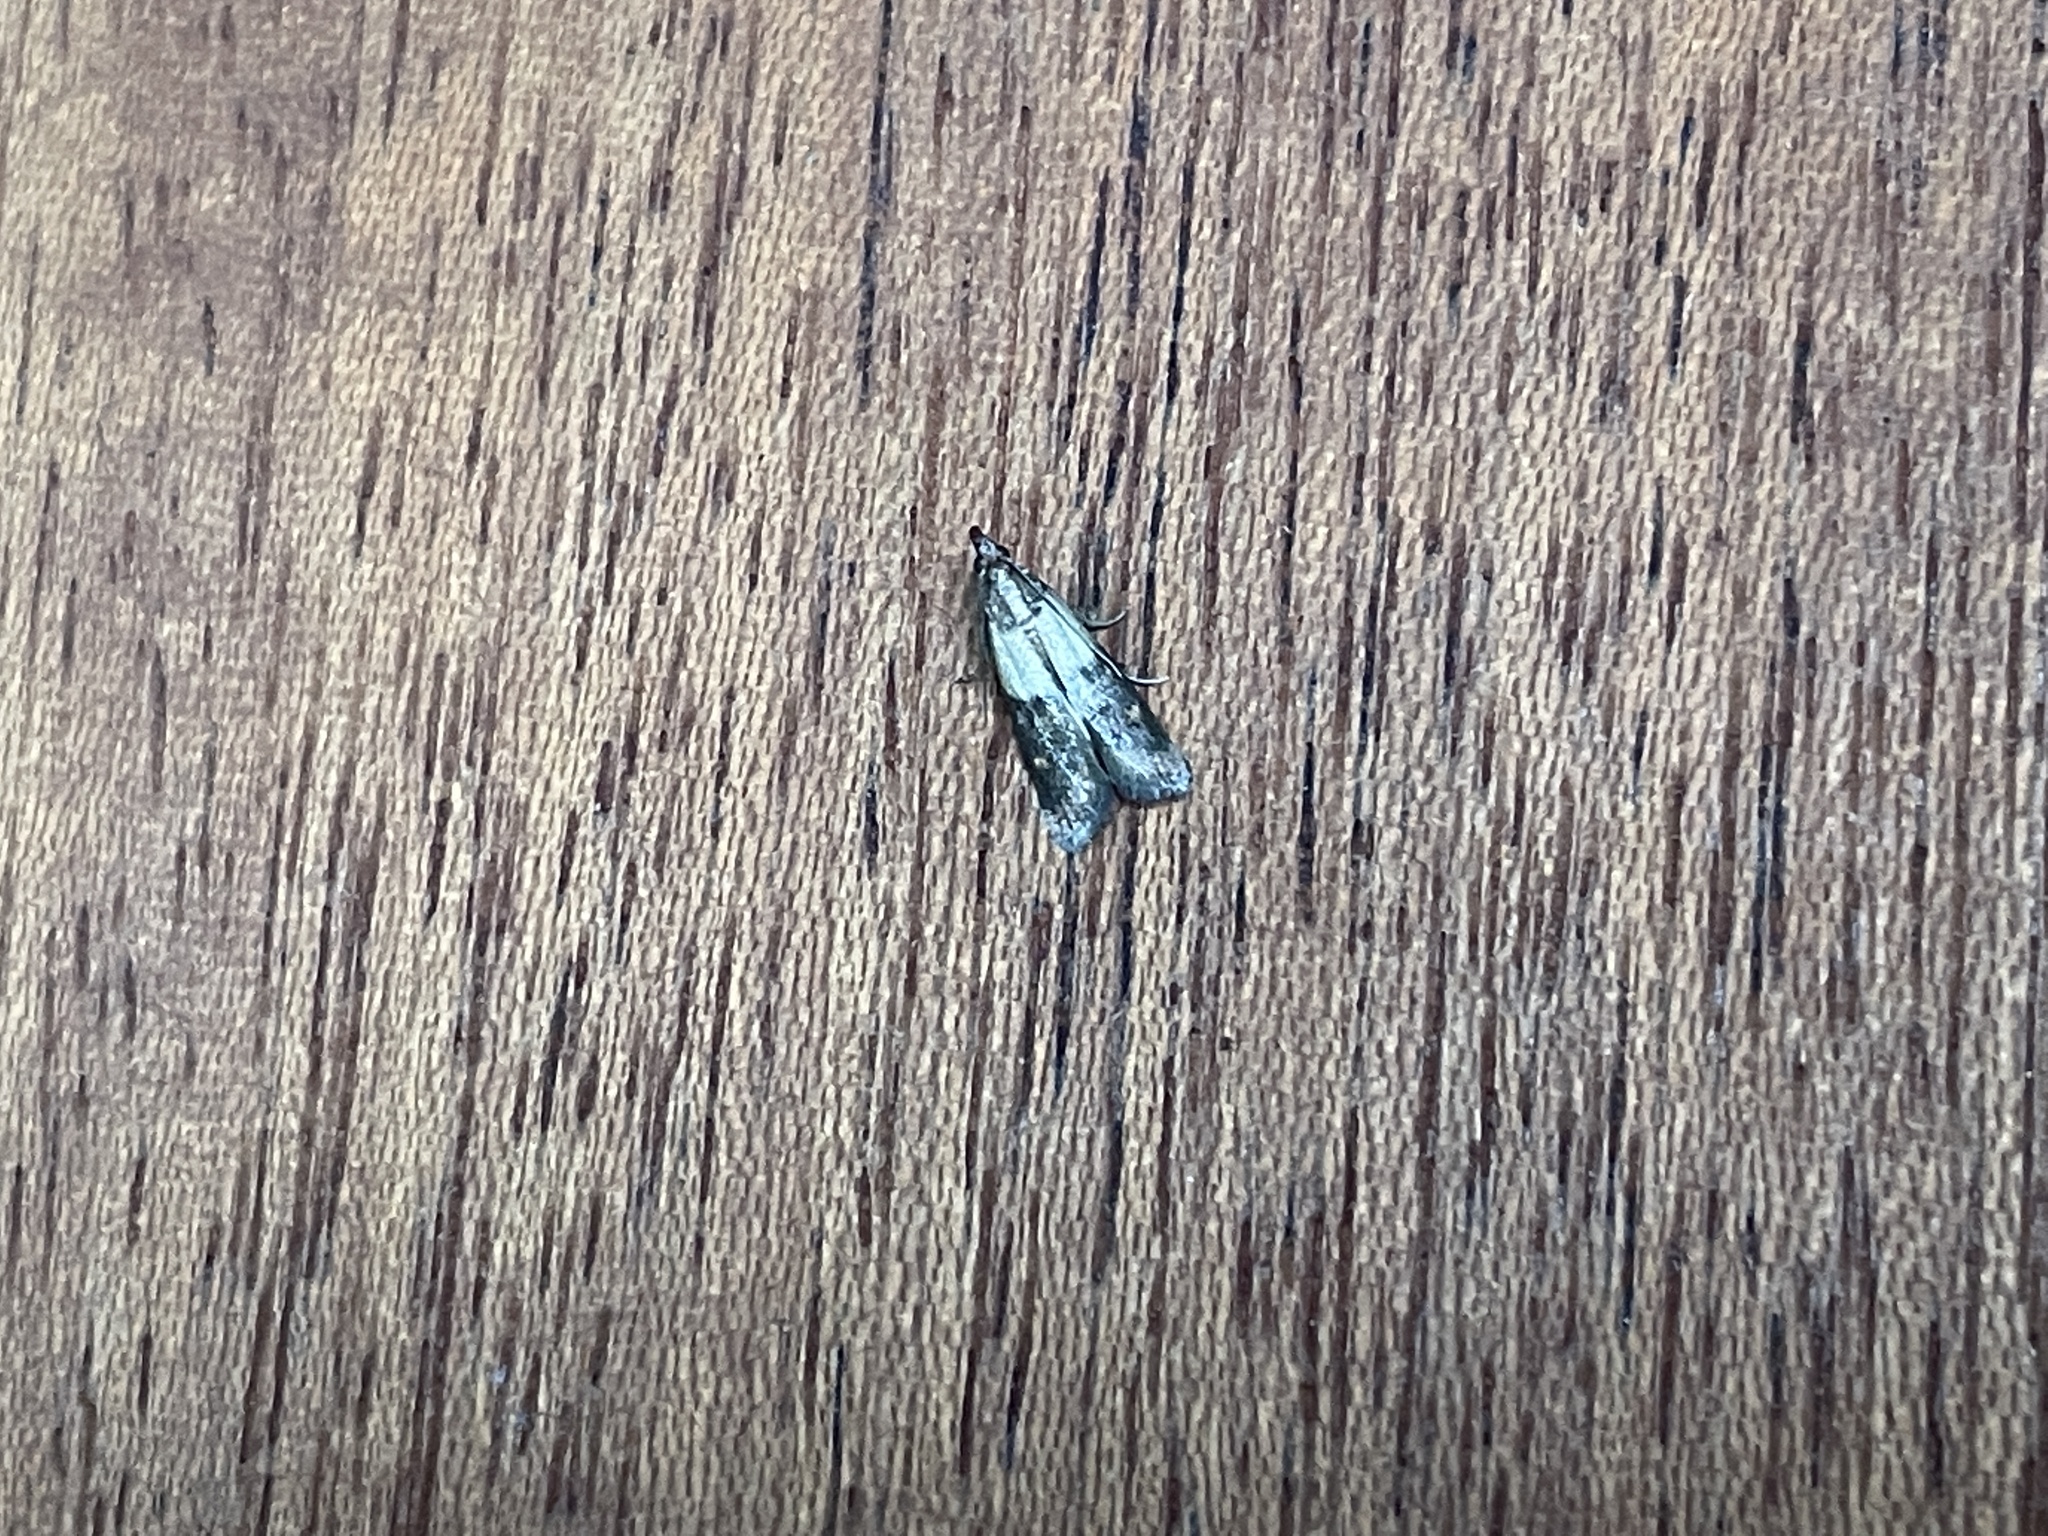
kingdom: Animalia
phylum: Arthropoda
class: Insecta
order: Lepidoptera
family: Pyralidae
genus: Plodia
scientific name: Plodia interpunctella
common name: Indian meal moth
